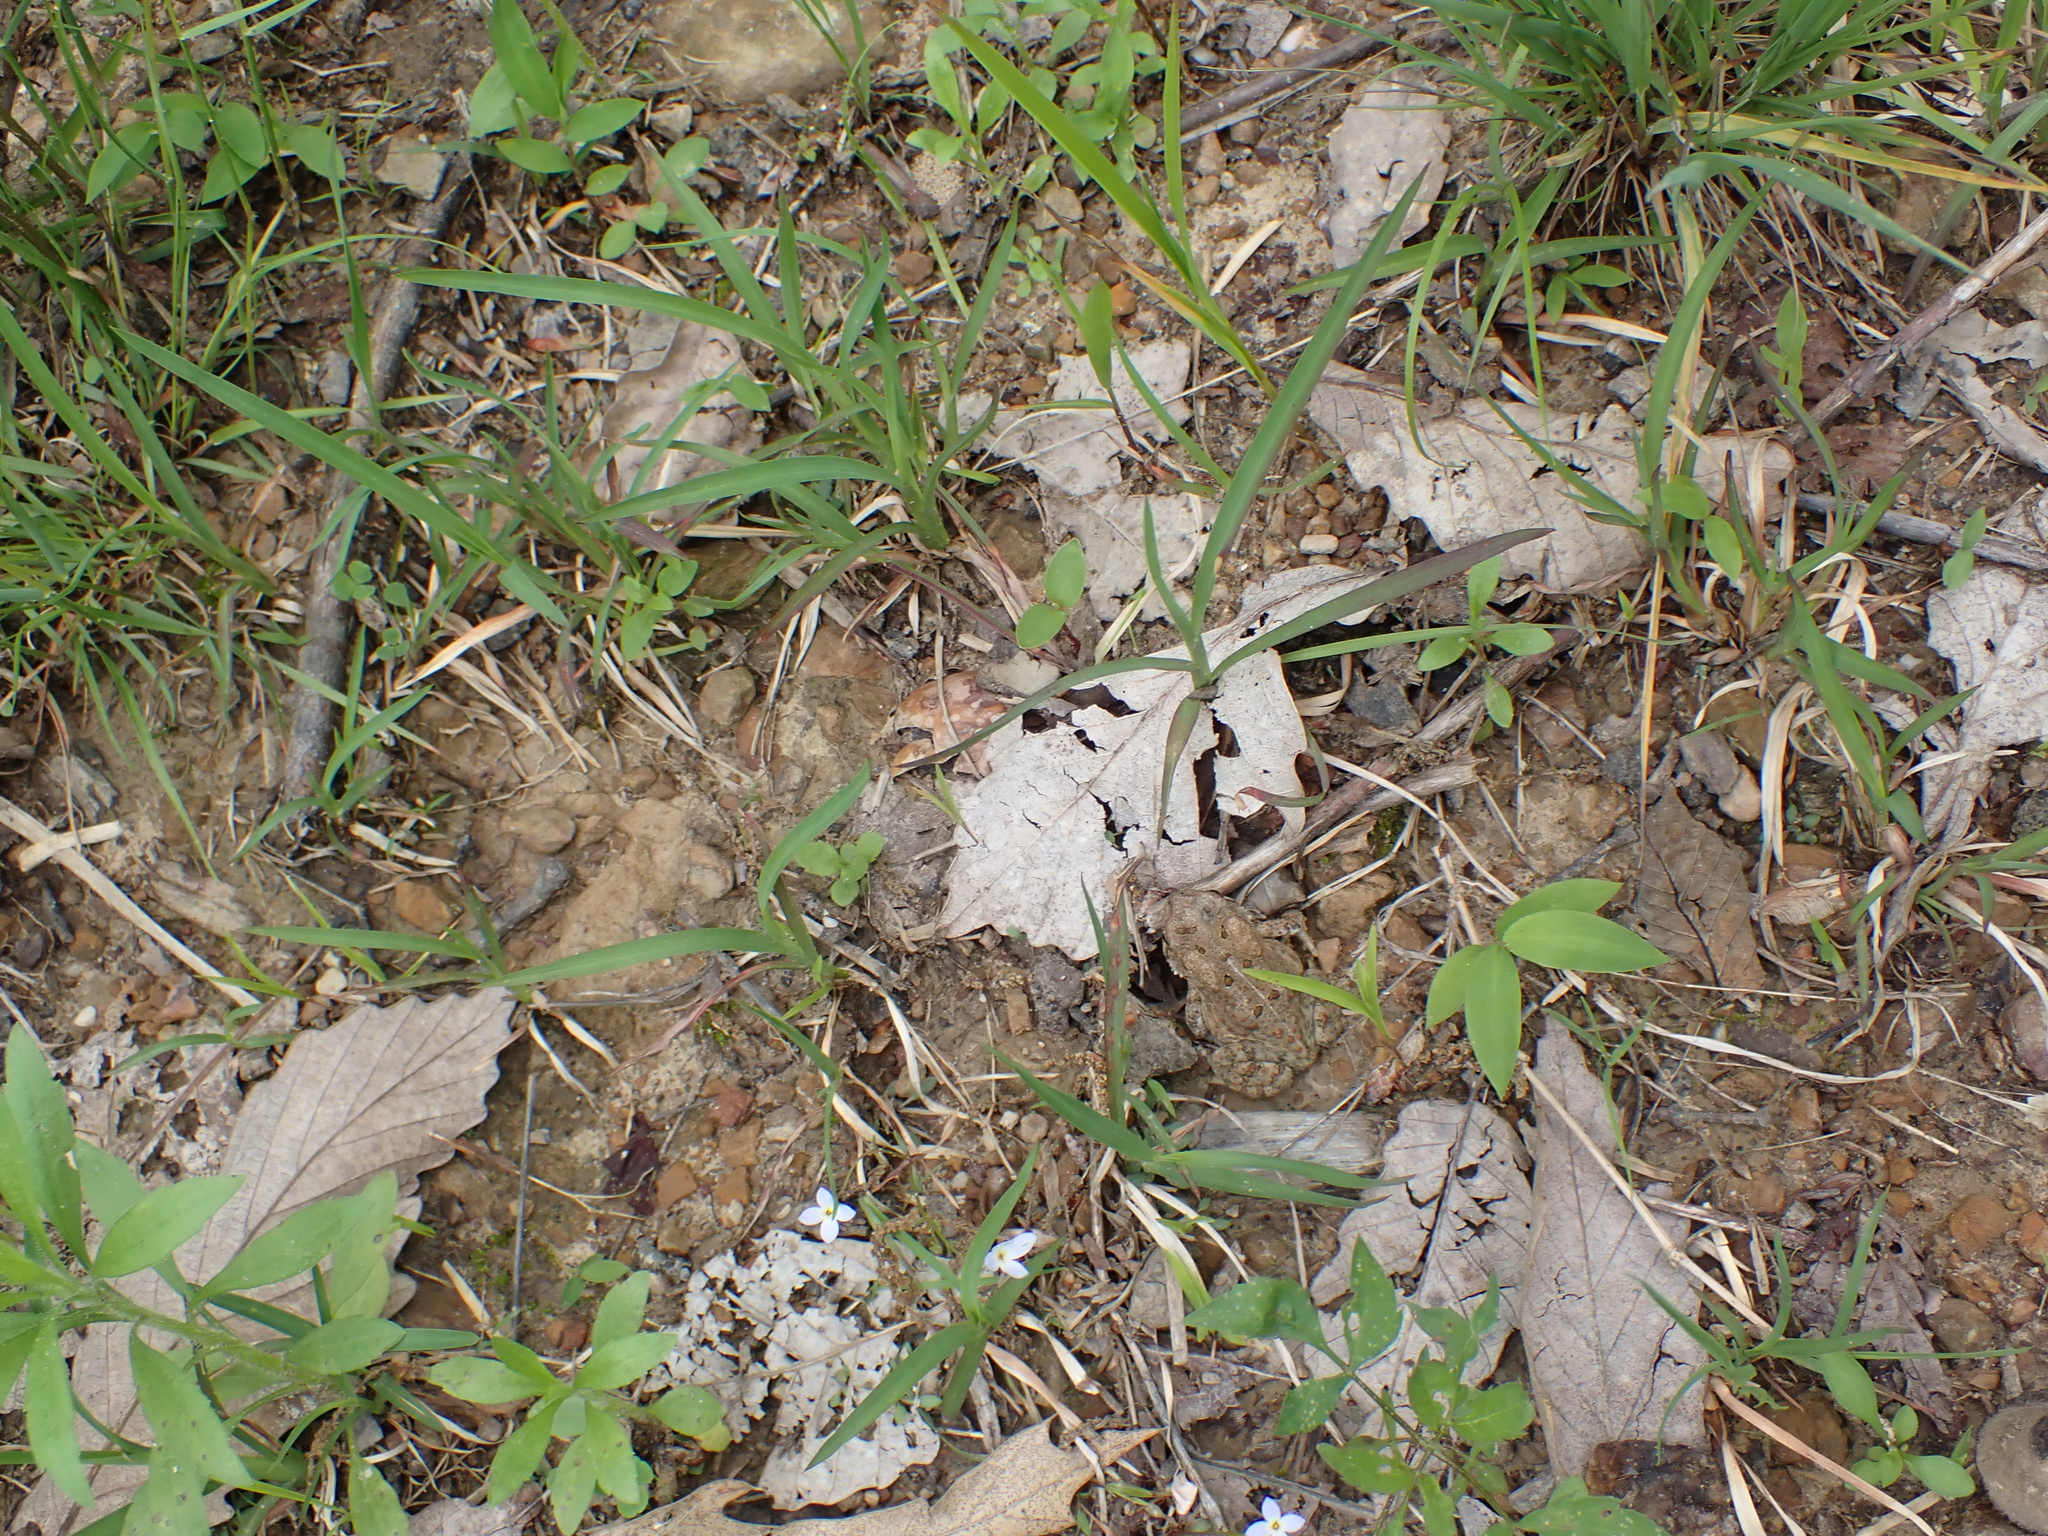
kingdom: Animalia
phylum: Chordata
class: Amphibia
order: Anura
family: Bufonidae
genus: Anaxyrus
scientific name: Anaxyrus americanus
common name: American toad
